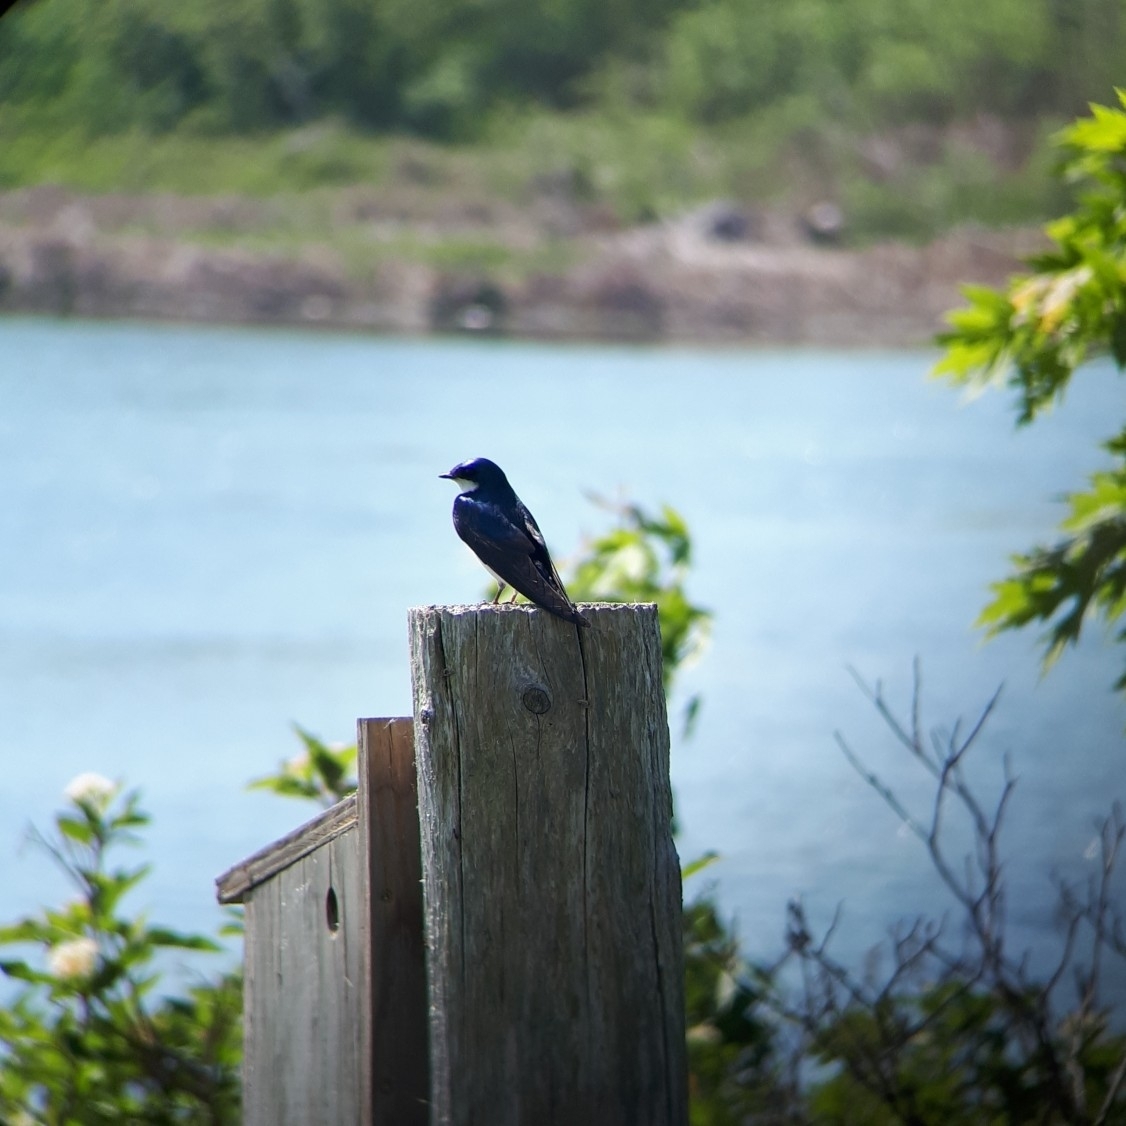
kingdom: Animalia
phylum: Chordata
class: Aves
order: Passeriformes
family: Hirundinidae
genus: Tachycineta
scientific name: Tachycineta bicolor
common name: Tree swallow
